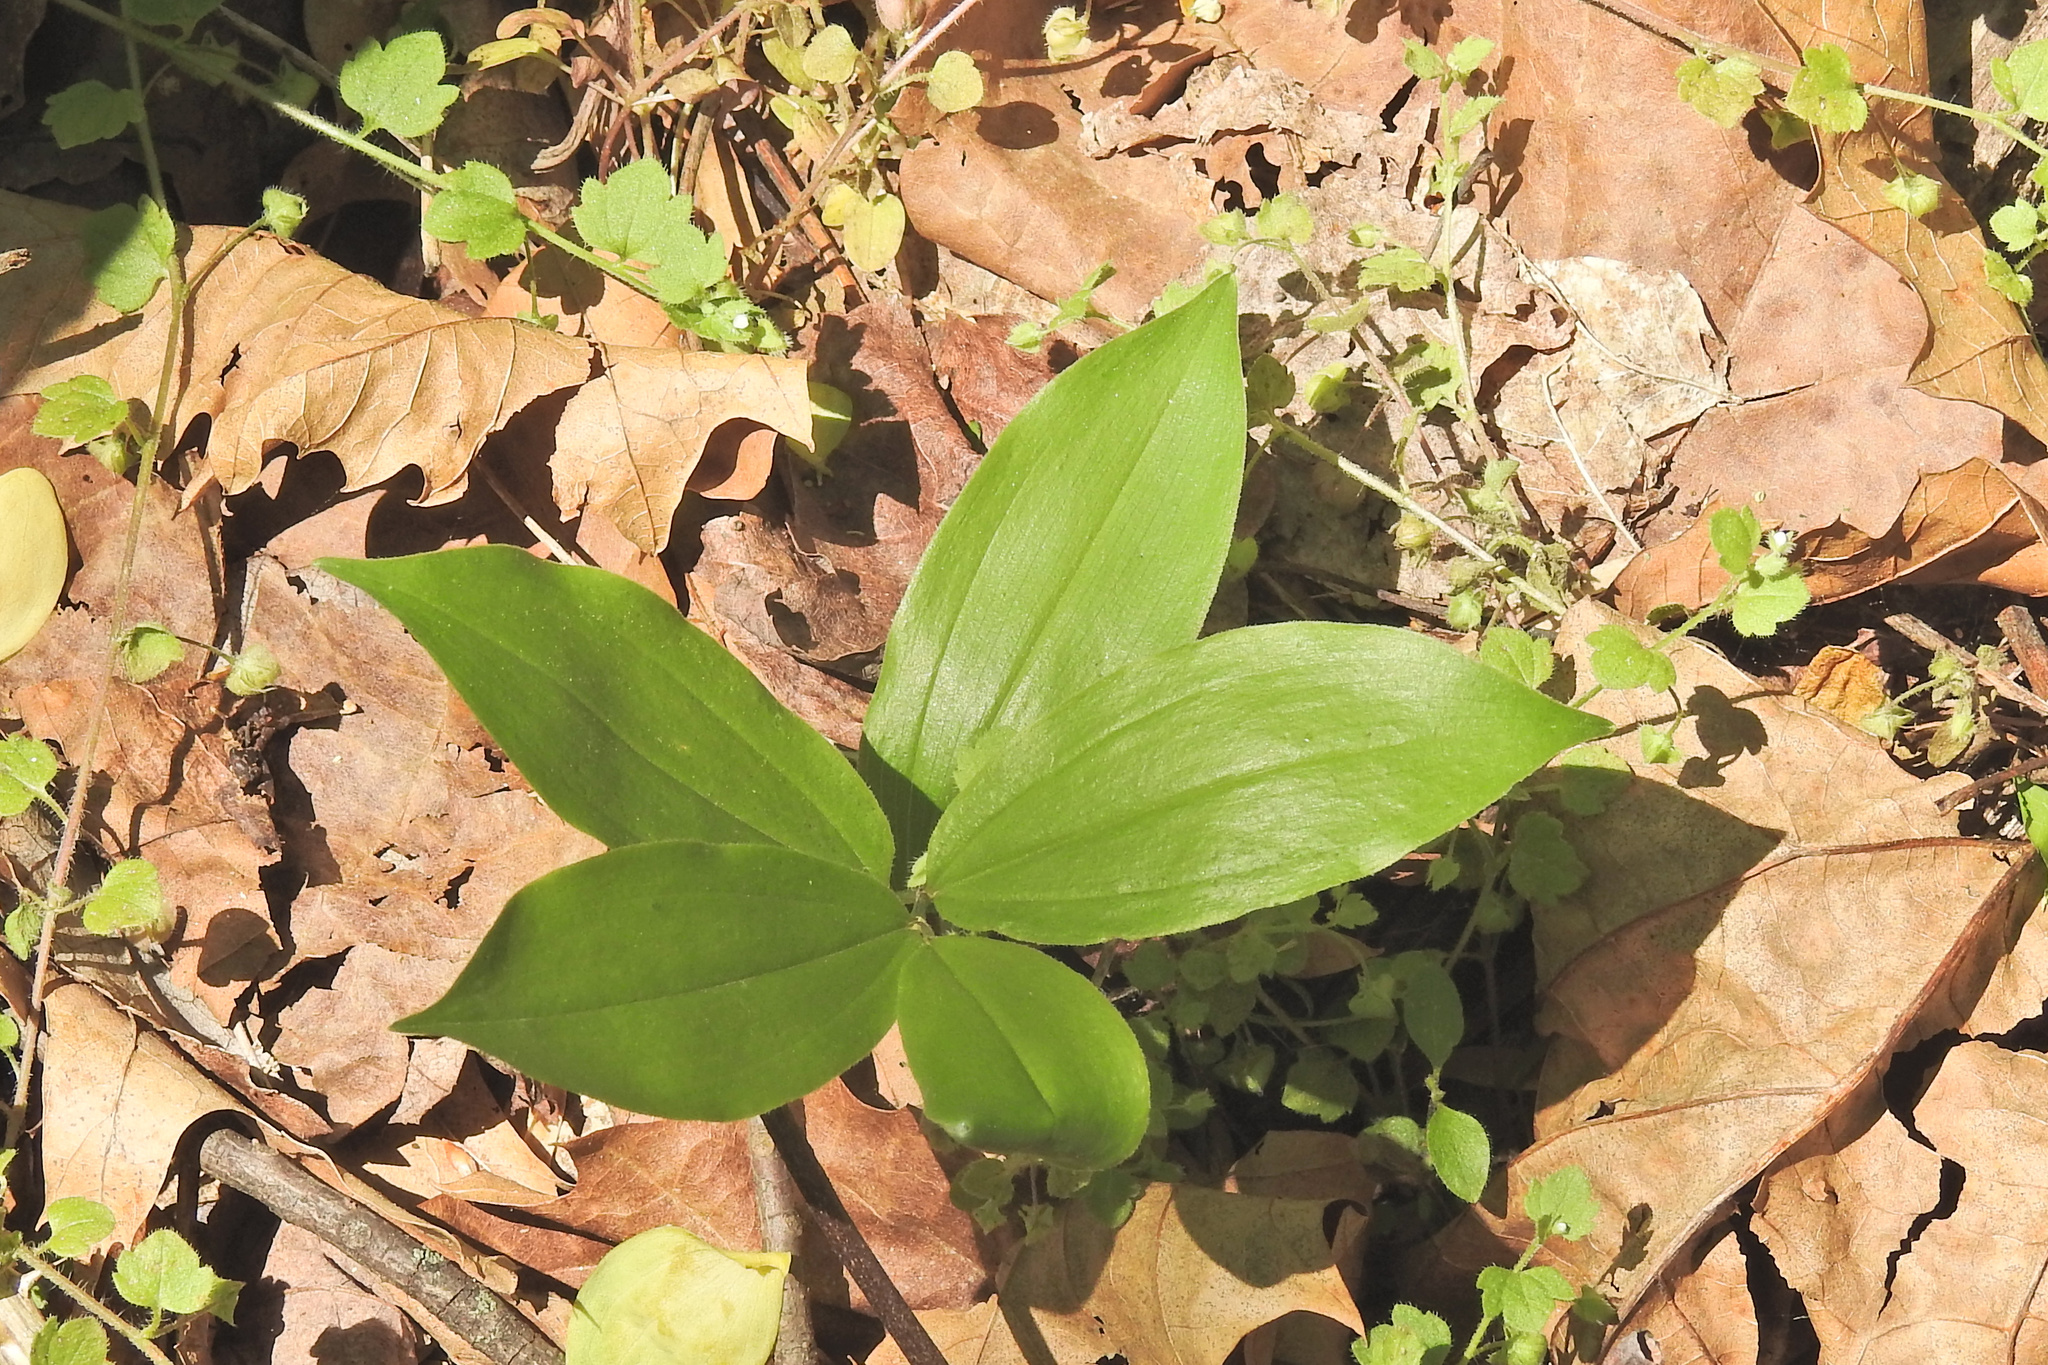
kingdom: Plantae
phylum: Tracheophyta
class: Liliopsida
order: Asparagales
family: Asparagaceae
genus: Maianthemum
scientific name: Maianthemum racemosum
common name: False spikenard
